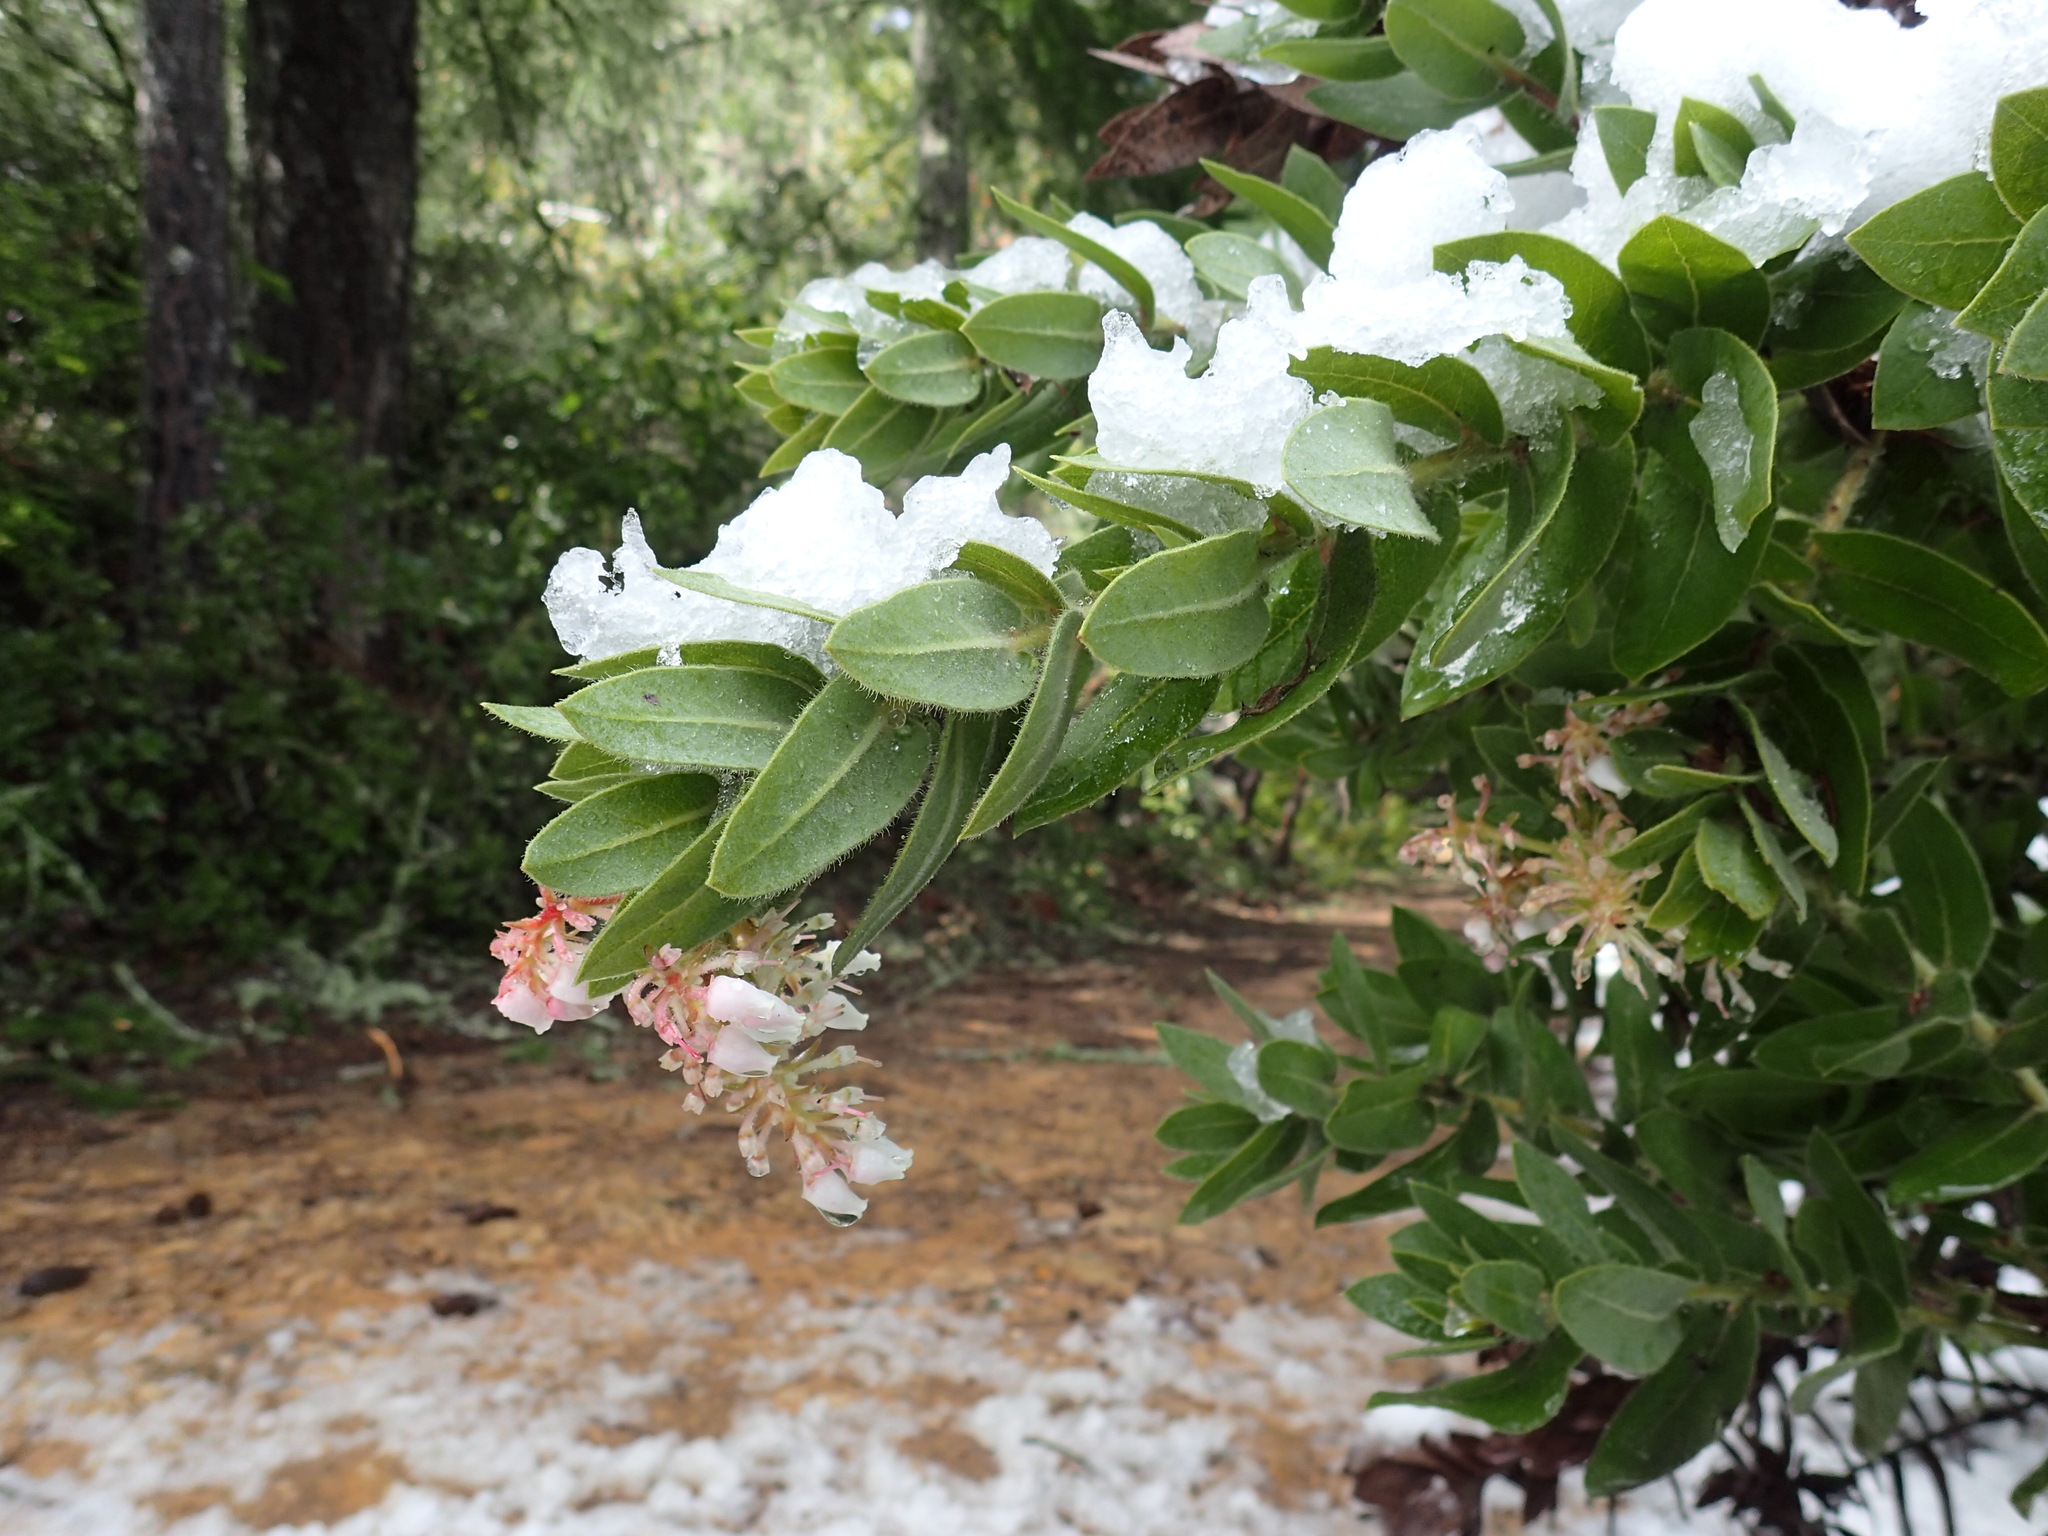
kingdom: Plantae
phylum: Tracheophyta
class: Magnoliopsida
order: Ericales
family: Ericaceae
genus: Arctostaphylos
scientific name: Arctostaphylos regismontana
